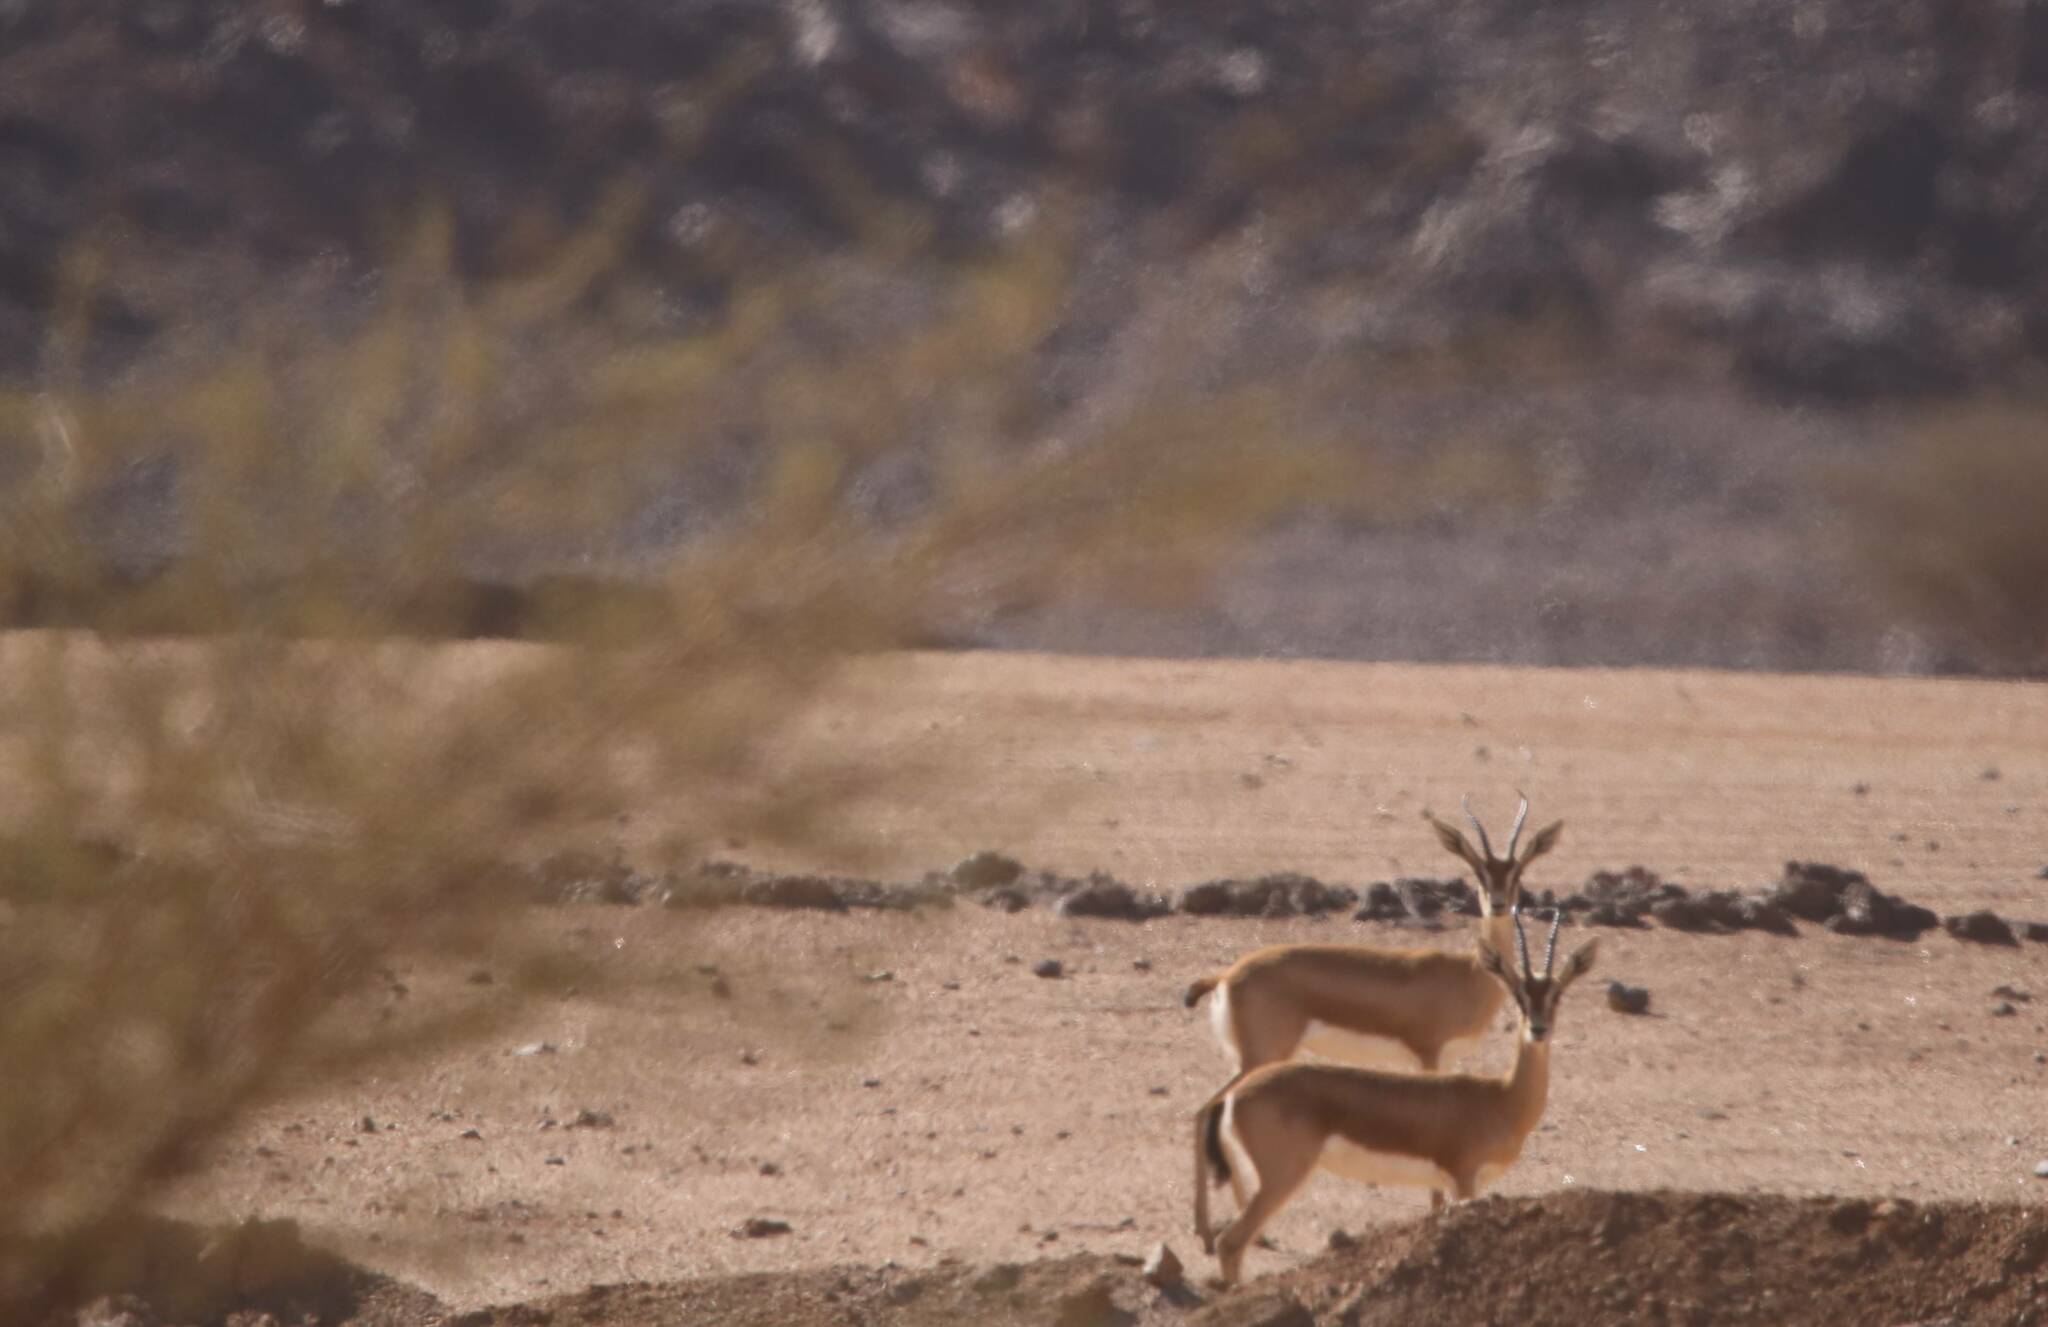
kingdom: Animalia
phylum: Chordata
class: Mammalia
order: Artiodactyla
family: Bovidae
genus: Gazella
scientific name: Gazella dorcas
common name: Dorcas gazelle
